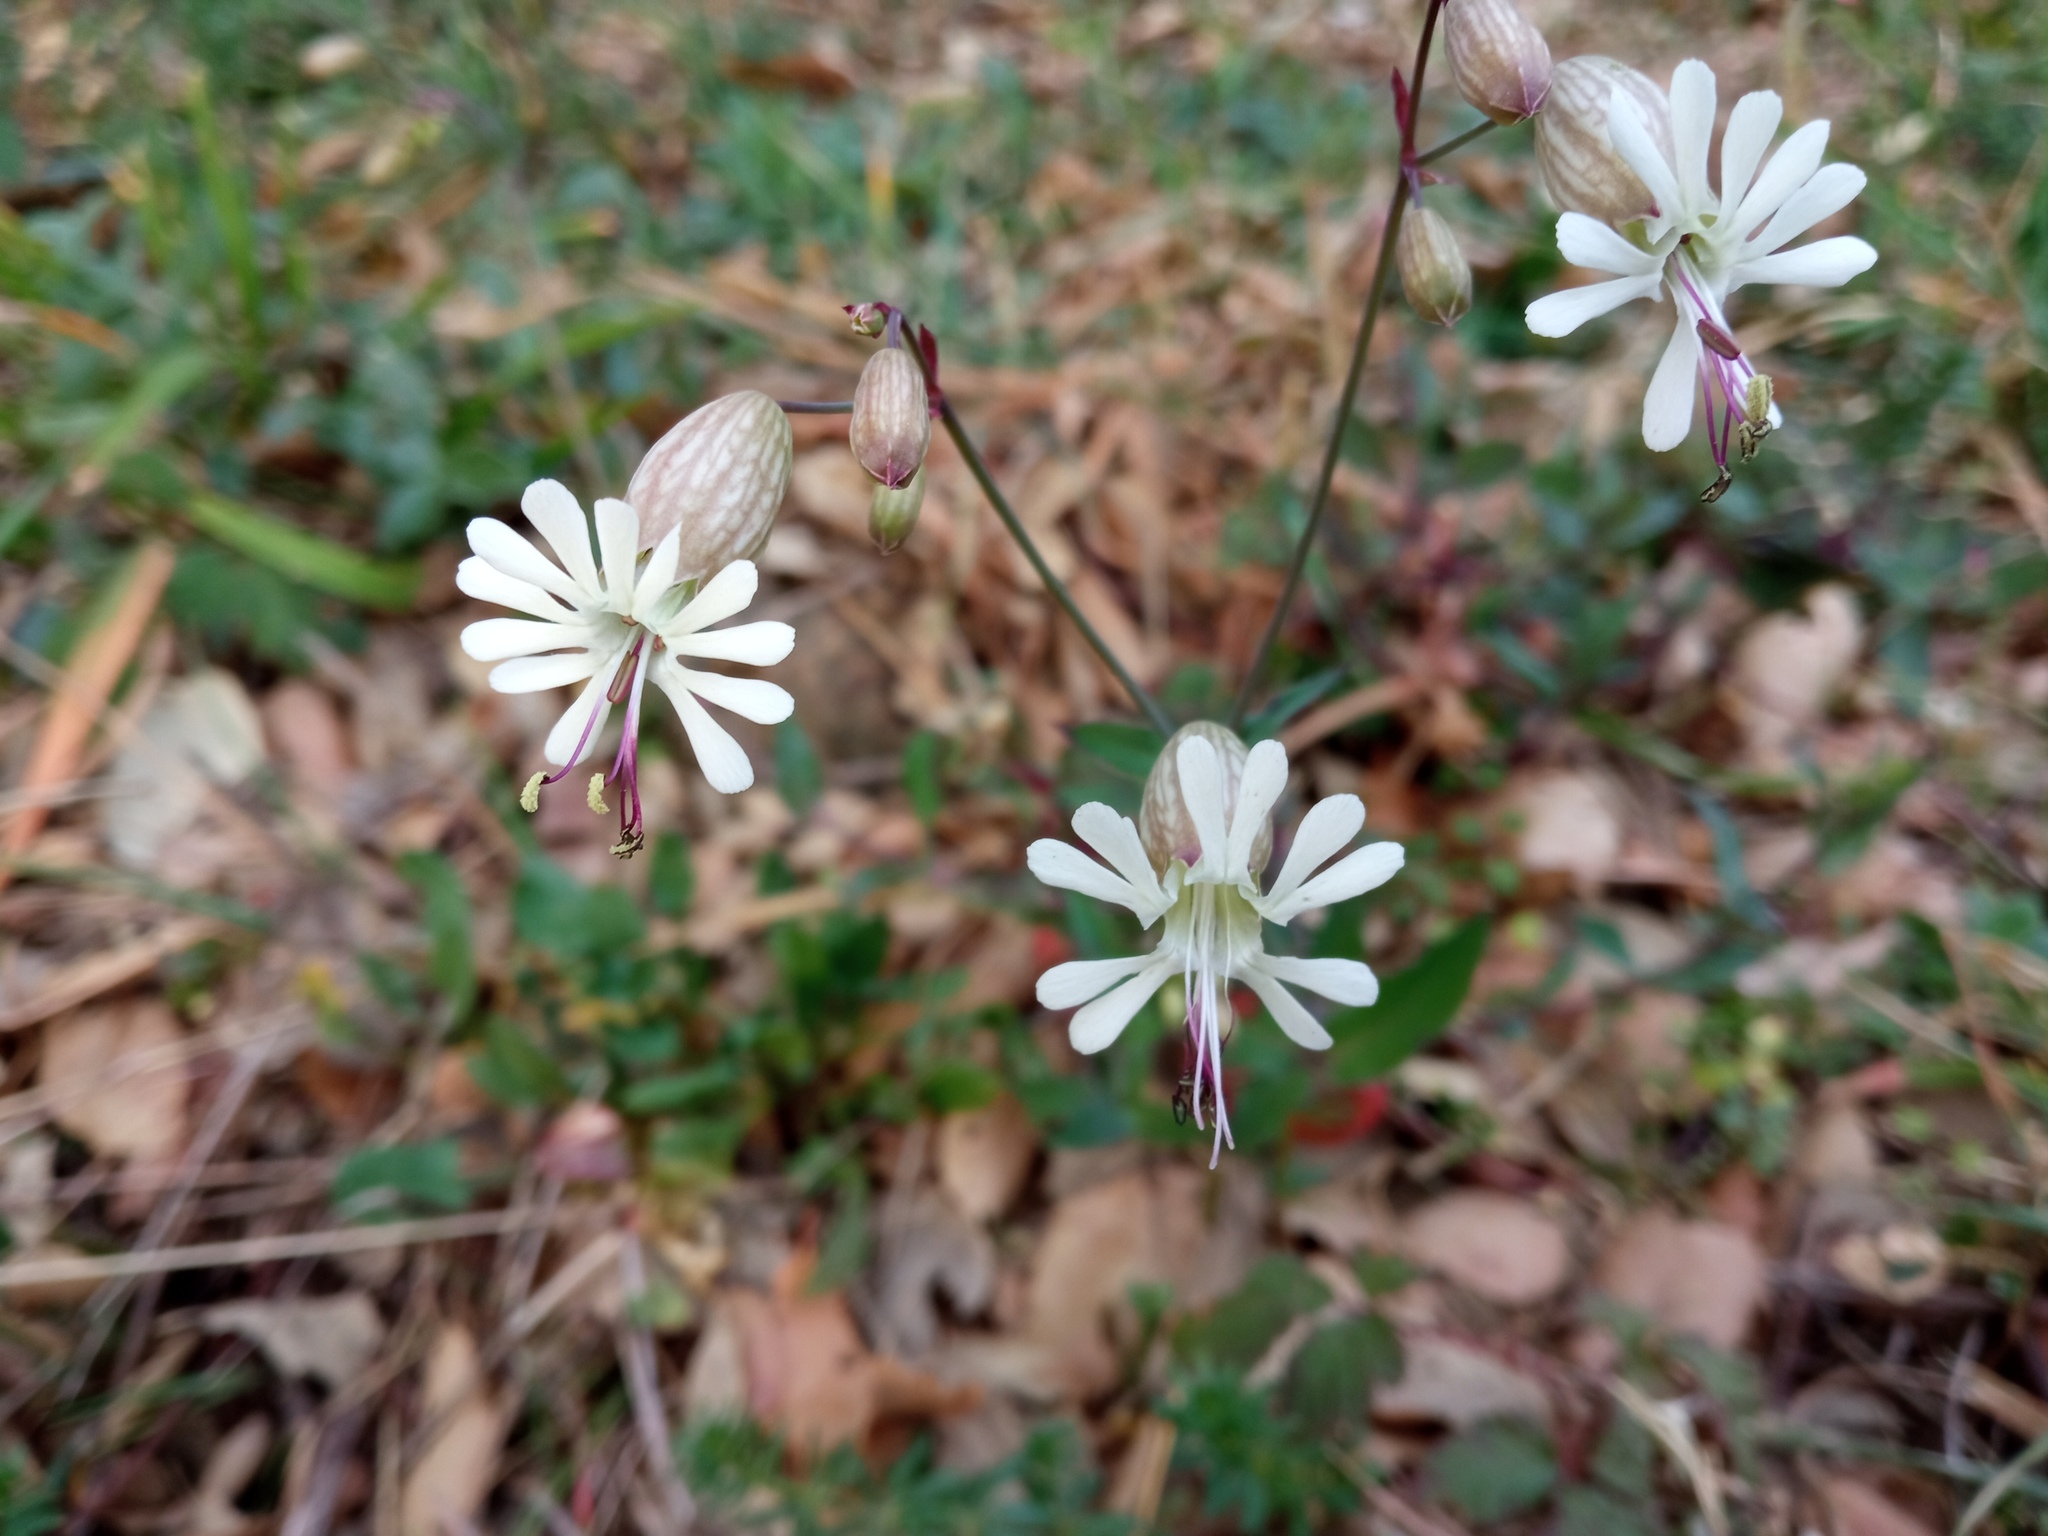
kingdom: Plantae
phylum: Tracheophyta
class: Magnoliopsida
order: Caryophyllales
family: Caryophyllaceae
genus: Silene
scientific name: Silene vulgaris
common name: Bladder campion
